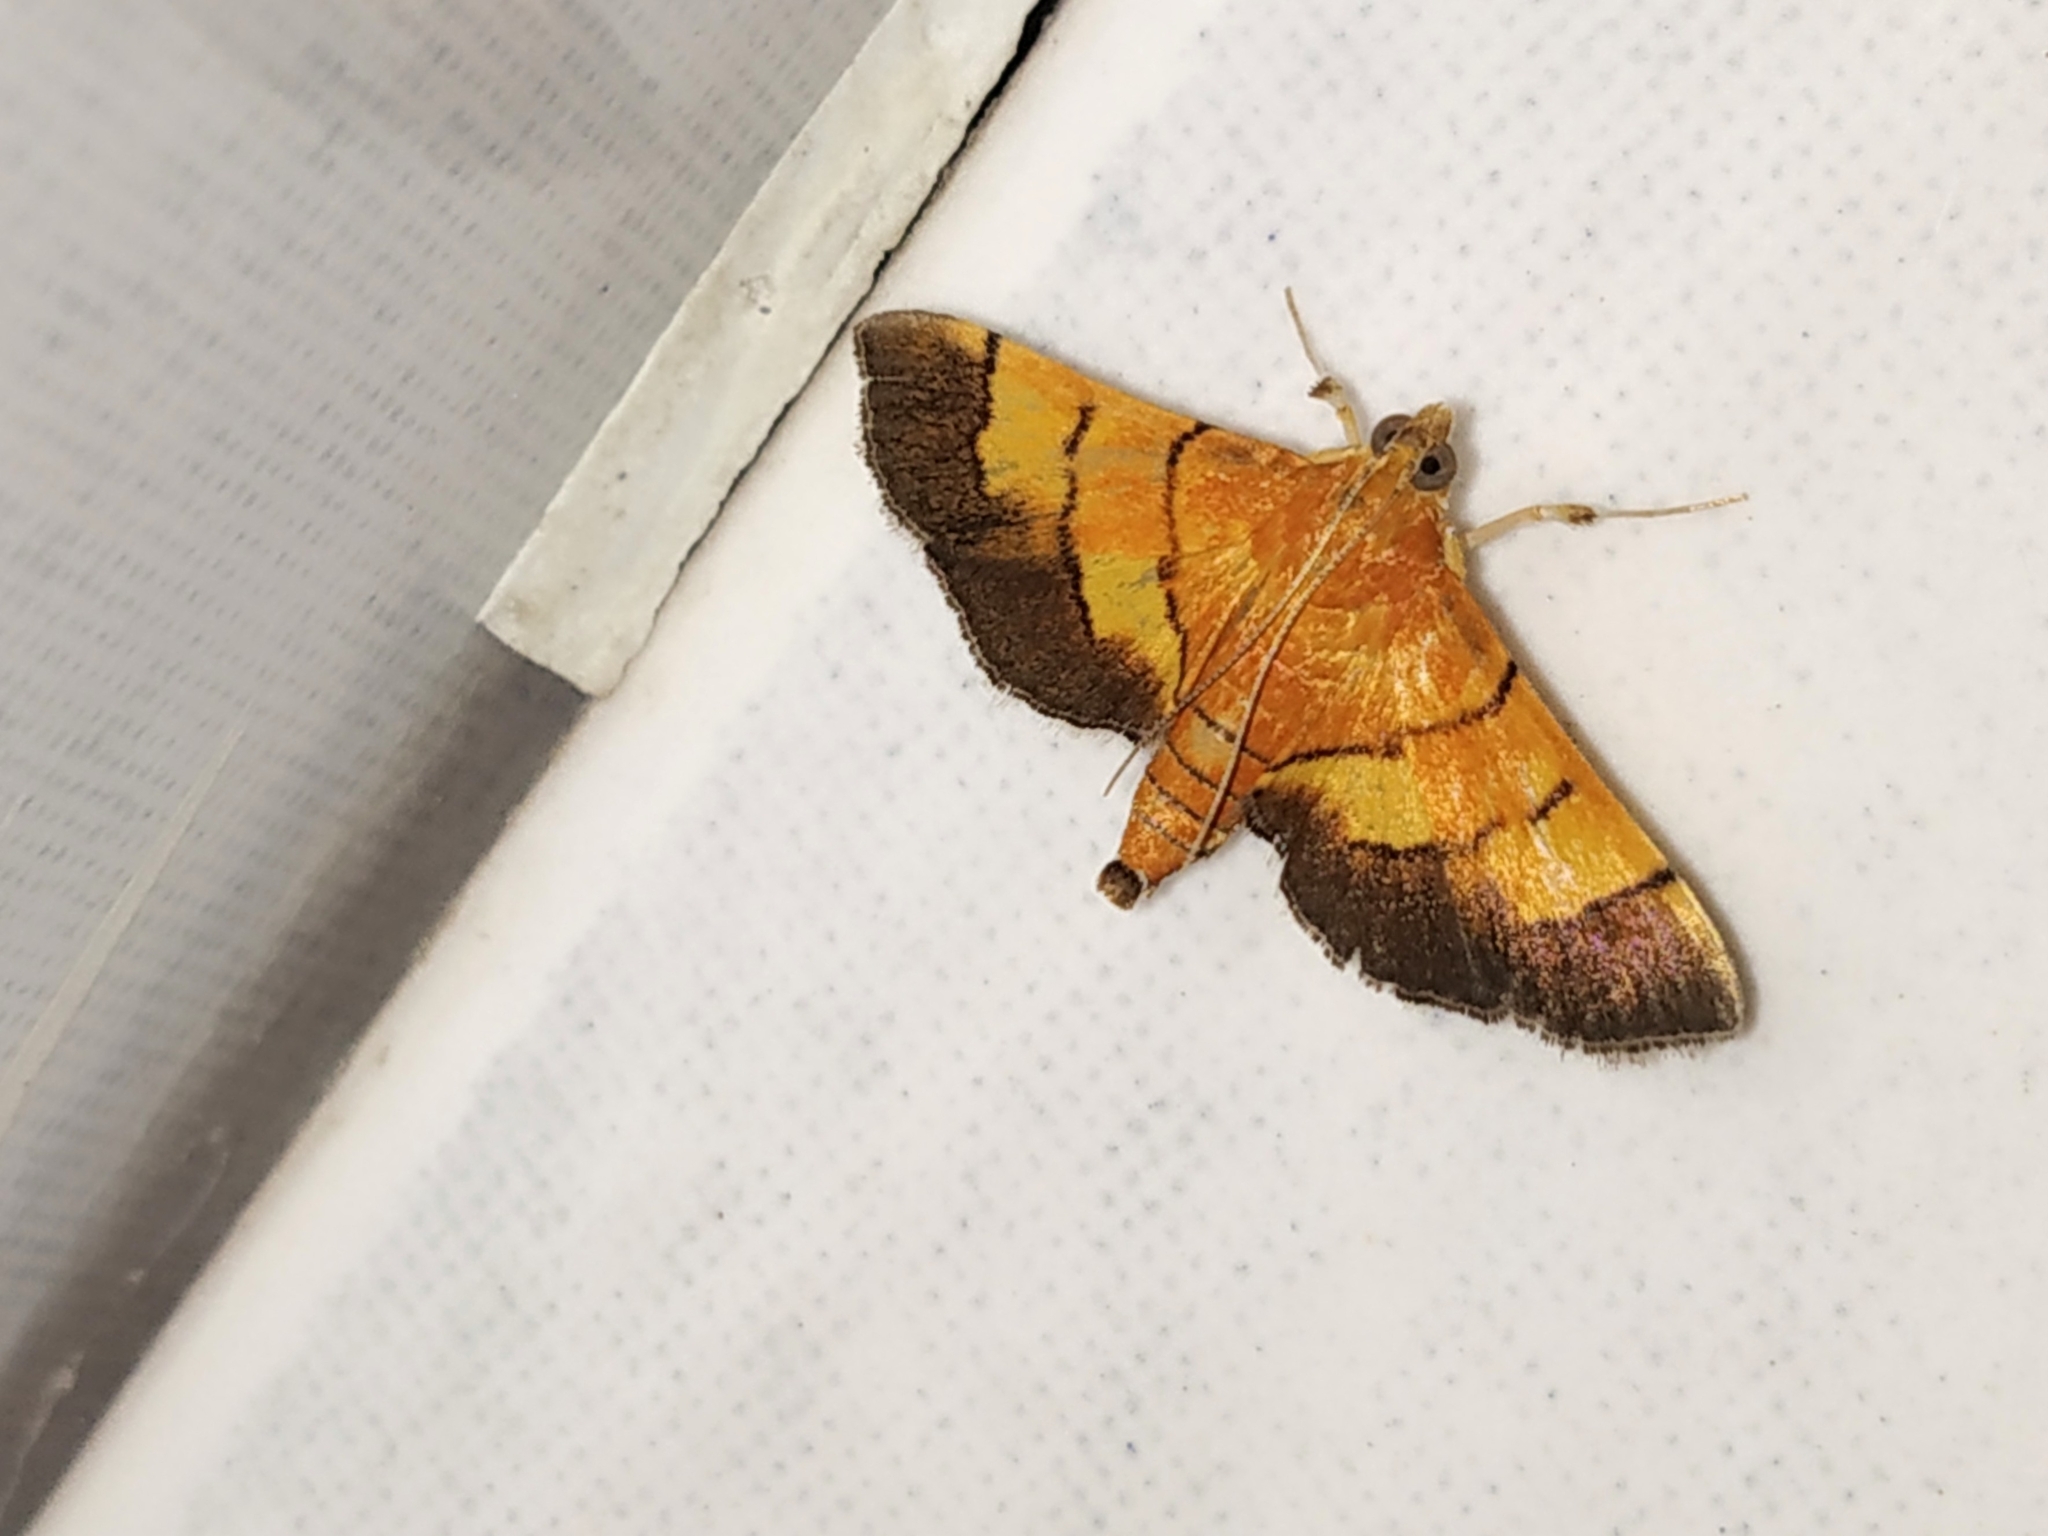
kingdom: Animalia
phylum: Arthropoda
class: Insecta
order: Lepidoptera
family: Crambidae
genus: Syngamia
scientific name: Syngamia latimarginalis
